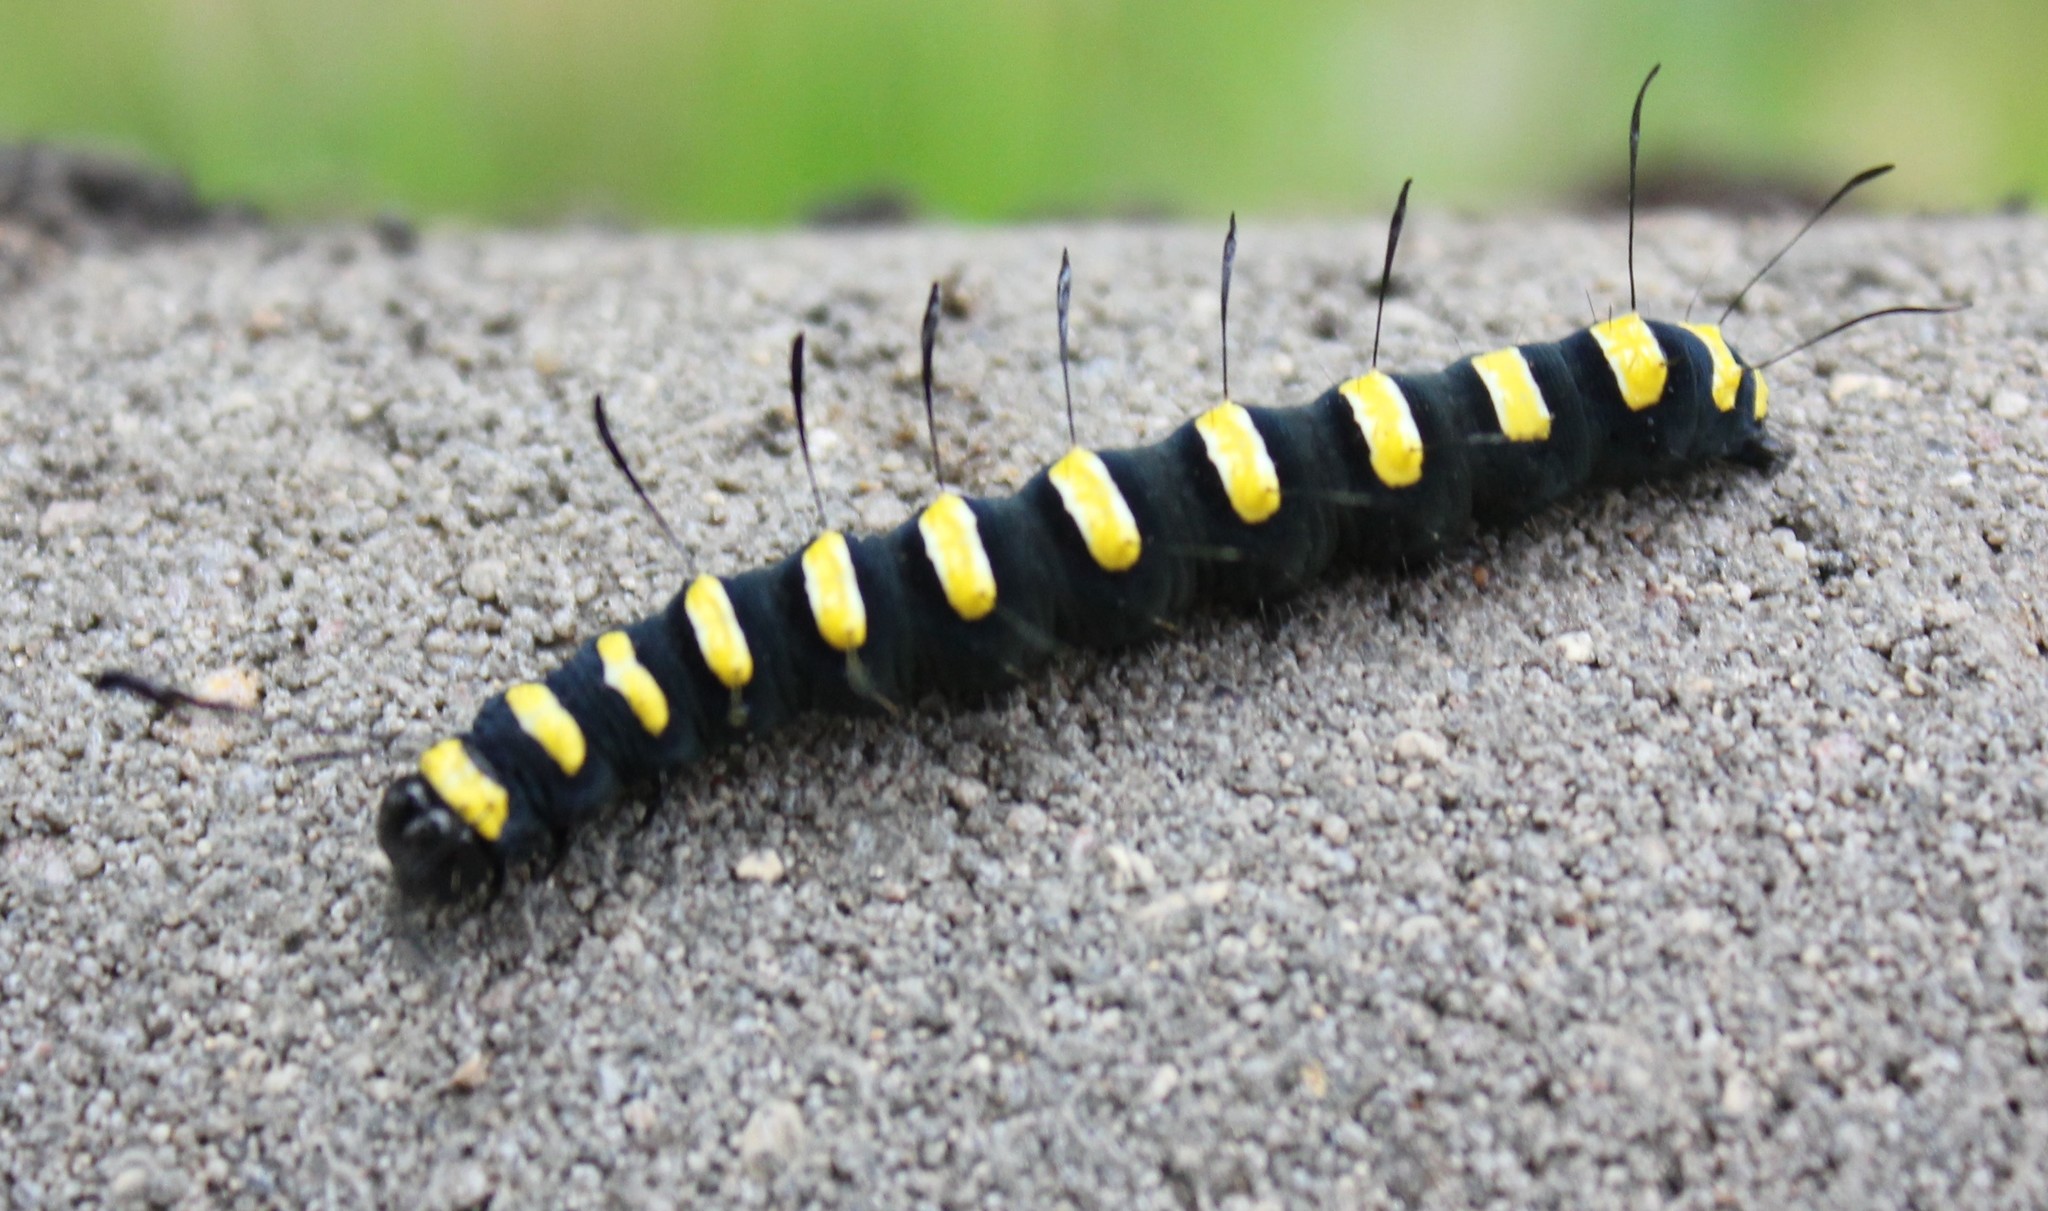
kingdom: Animalia
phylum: Arthropoda
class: Insecta
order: Lepidoptera
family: Noctuidae
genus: Acronicta
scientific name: Acronicta alni
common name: Alder moth
